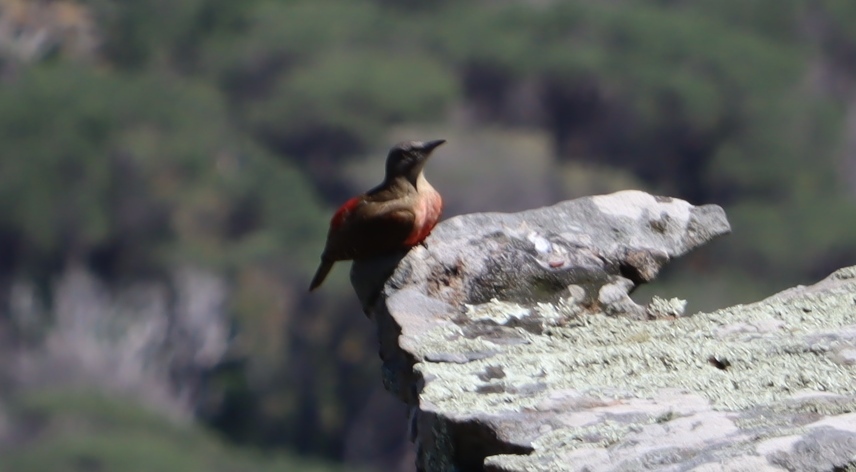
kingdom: Animalia
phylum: Chordata
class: Aves
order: Piciformes
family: Picidae
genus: Geocolaptes
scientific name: Geocolaptes olivaceus
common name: Ground woodpecker
